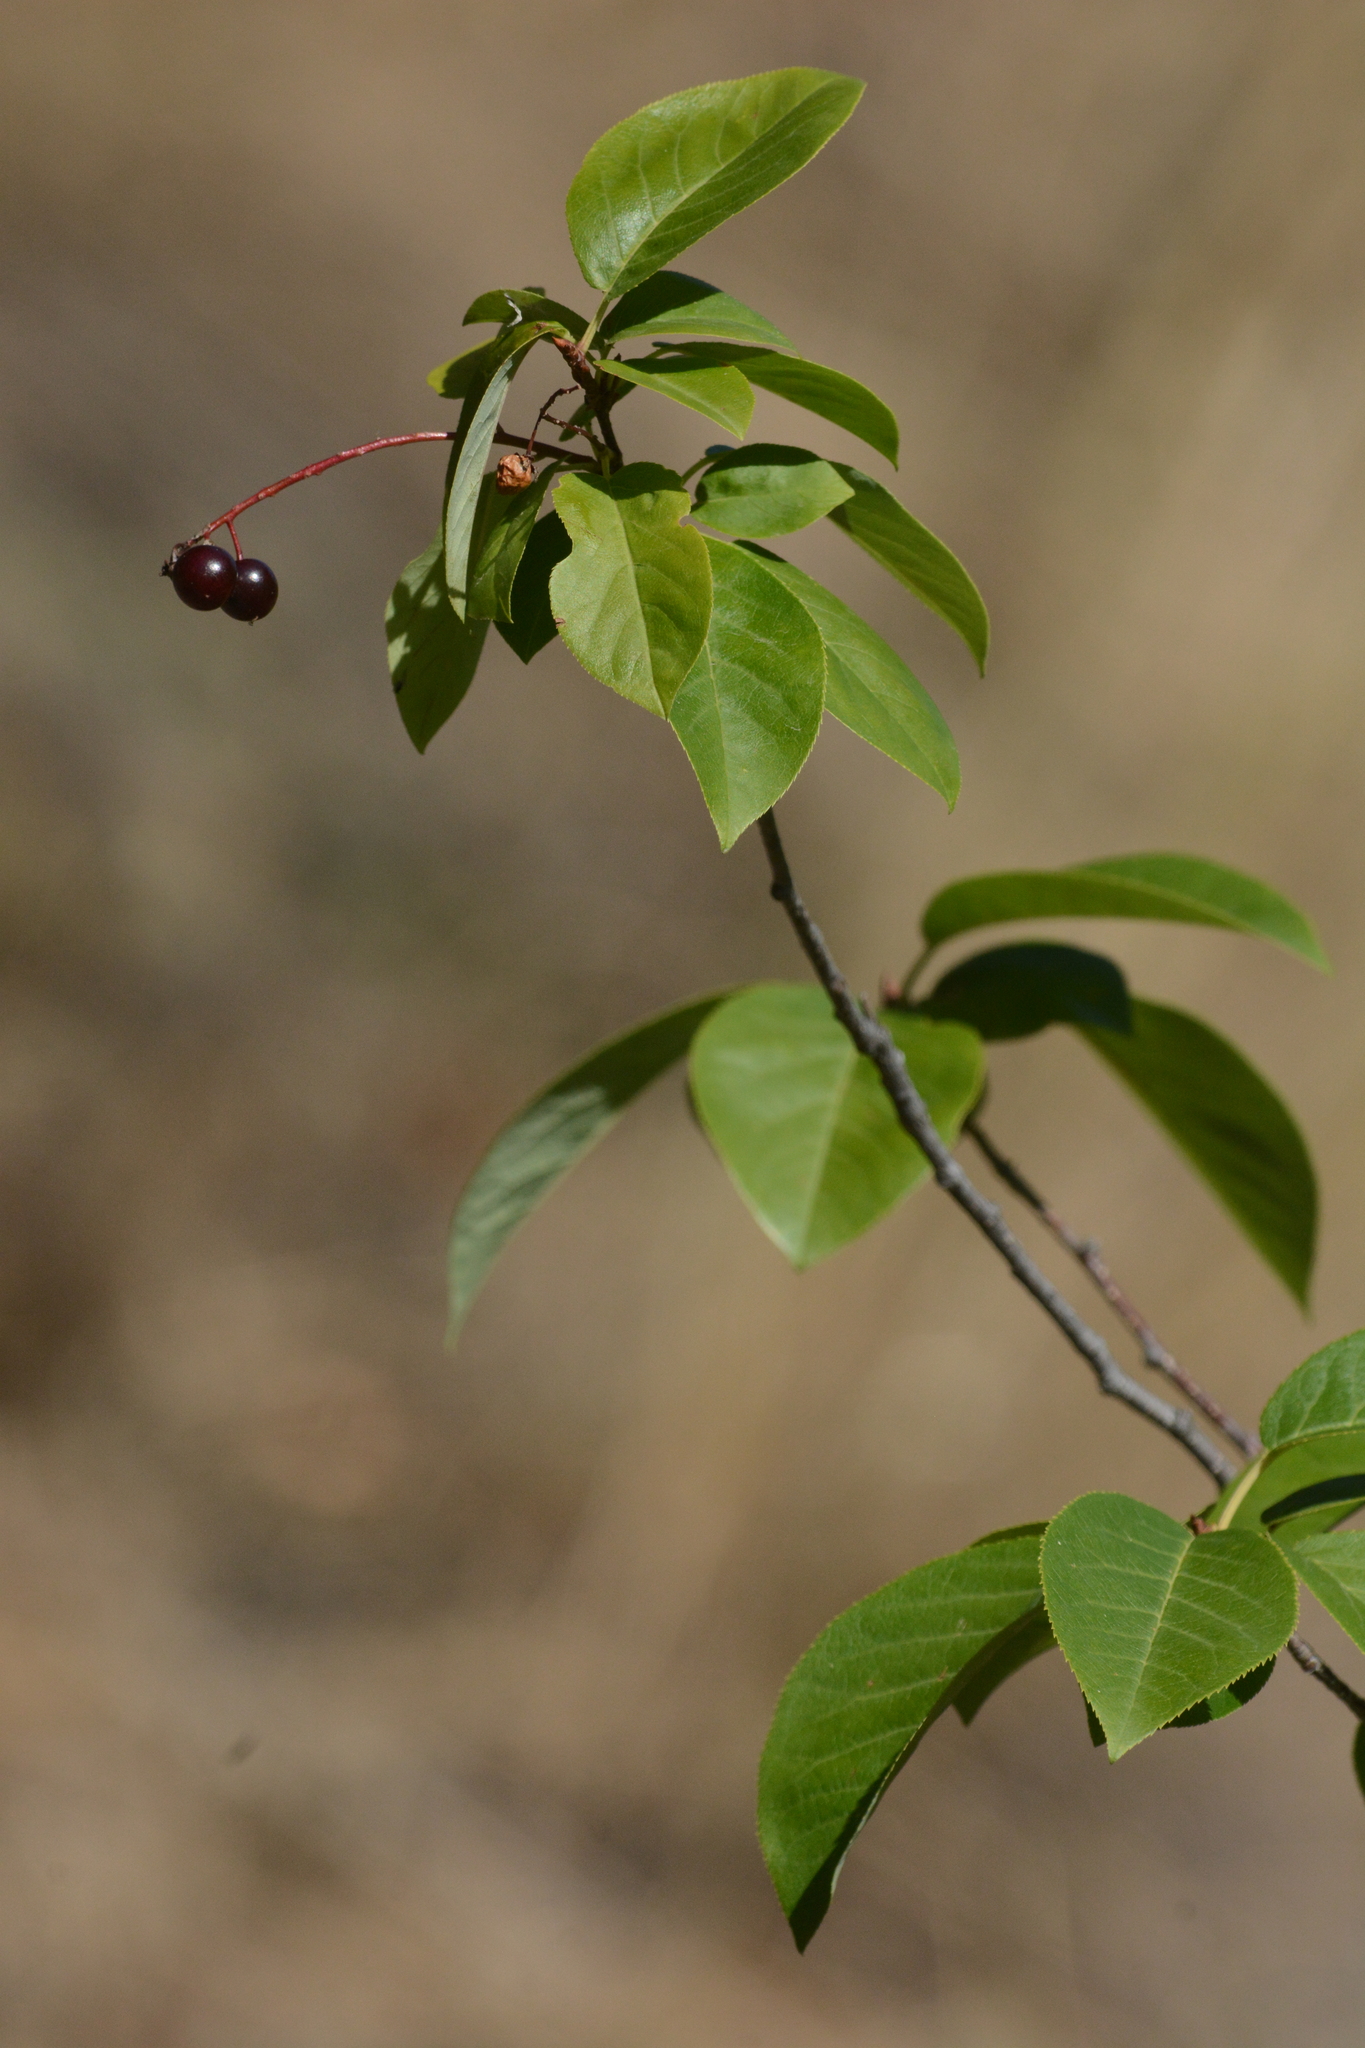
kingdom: Plantae
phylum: Tracheophyta
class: Magnoliopsida
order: Rosales
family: Rosaceae
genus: Prunus
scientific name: Prunus virginiana
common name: Chokecherry
